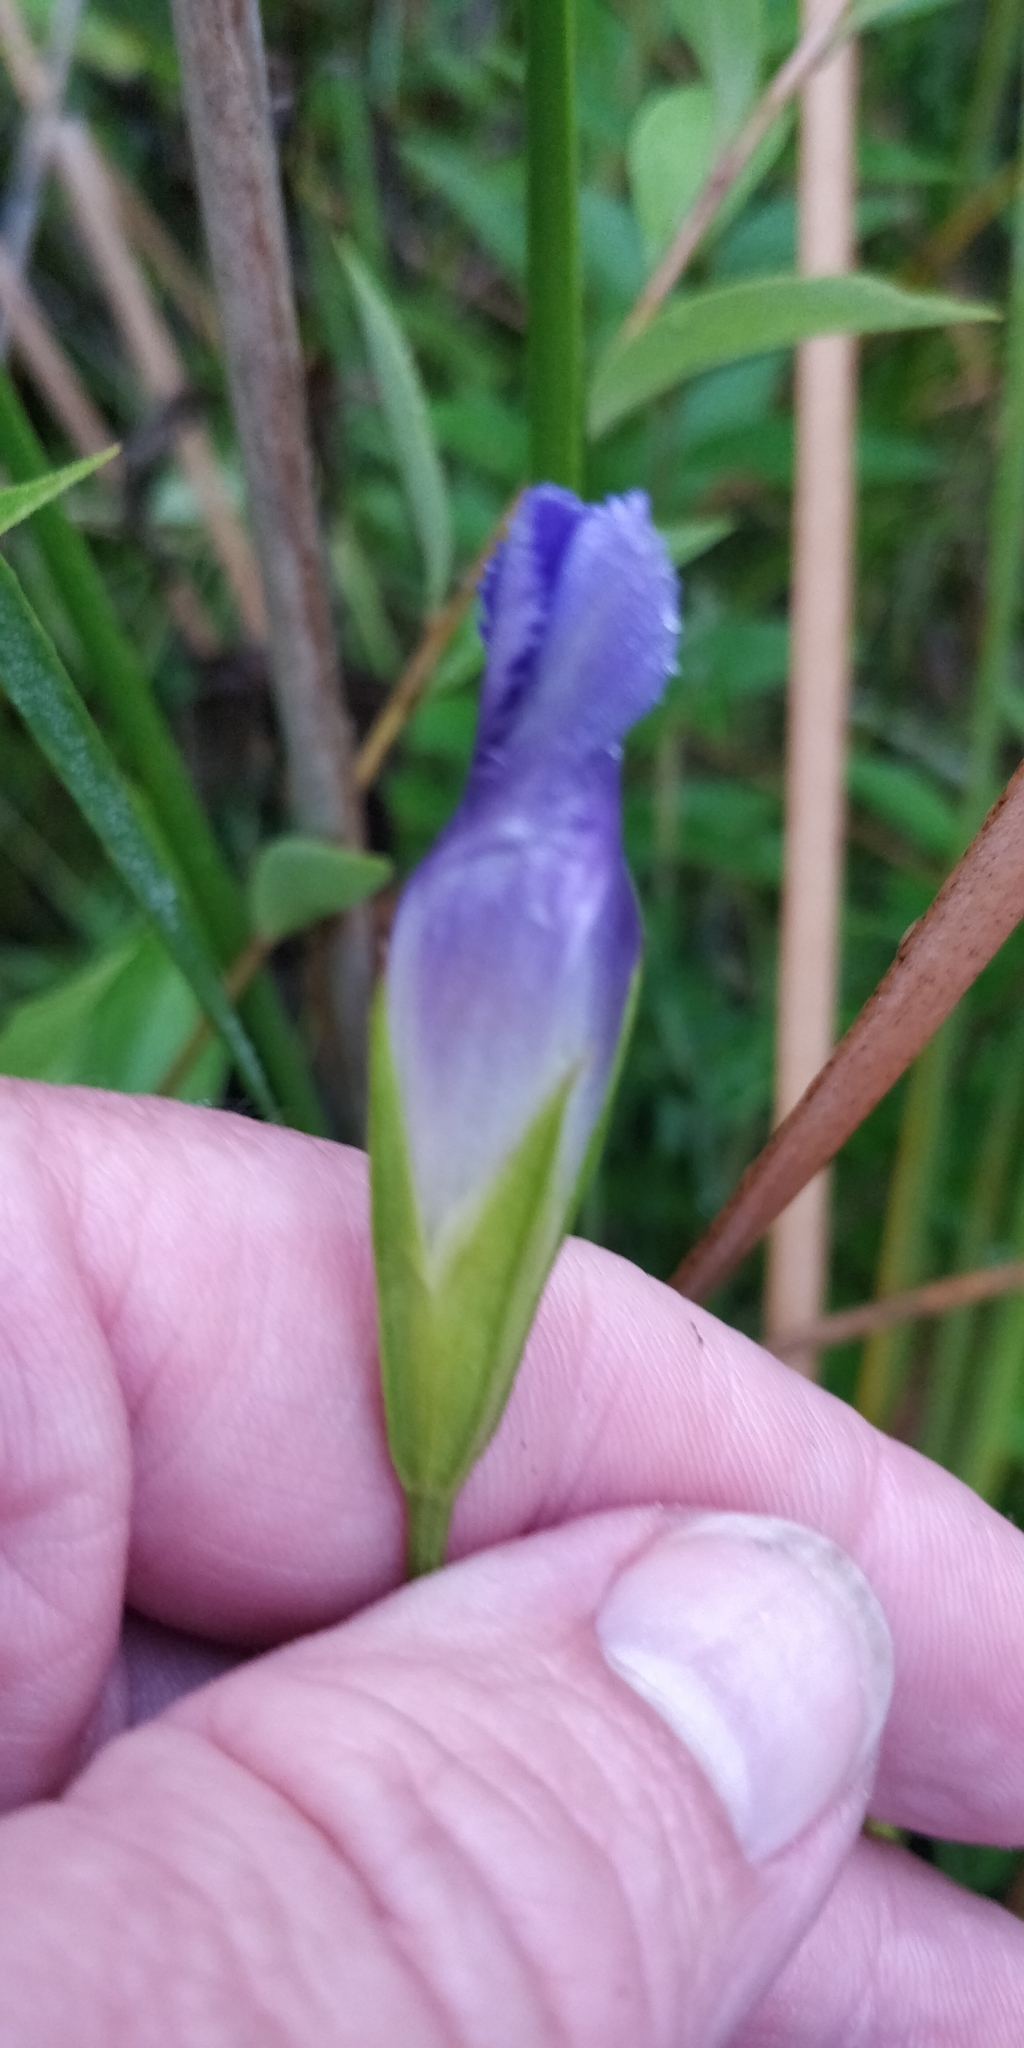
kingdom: Plantae
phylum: Tracheophyta
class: Magnoliopsida
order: Gentianales
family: Gentianaceae
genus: Gentianopsis
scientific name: Gentianopsis virgata
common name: Lesser fringed-gentian
